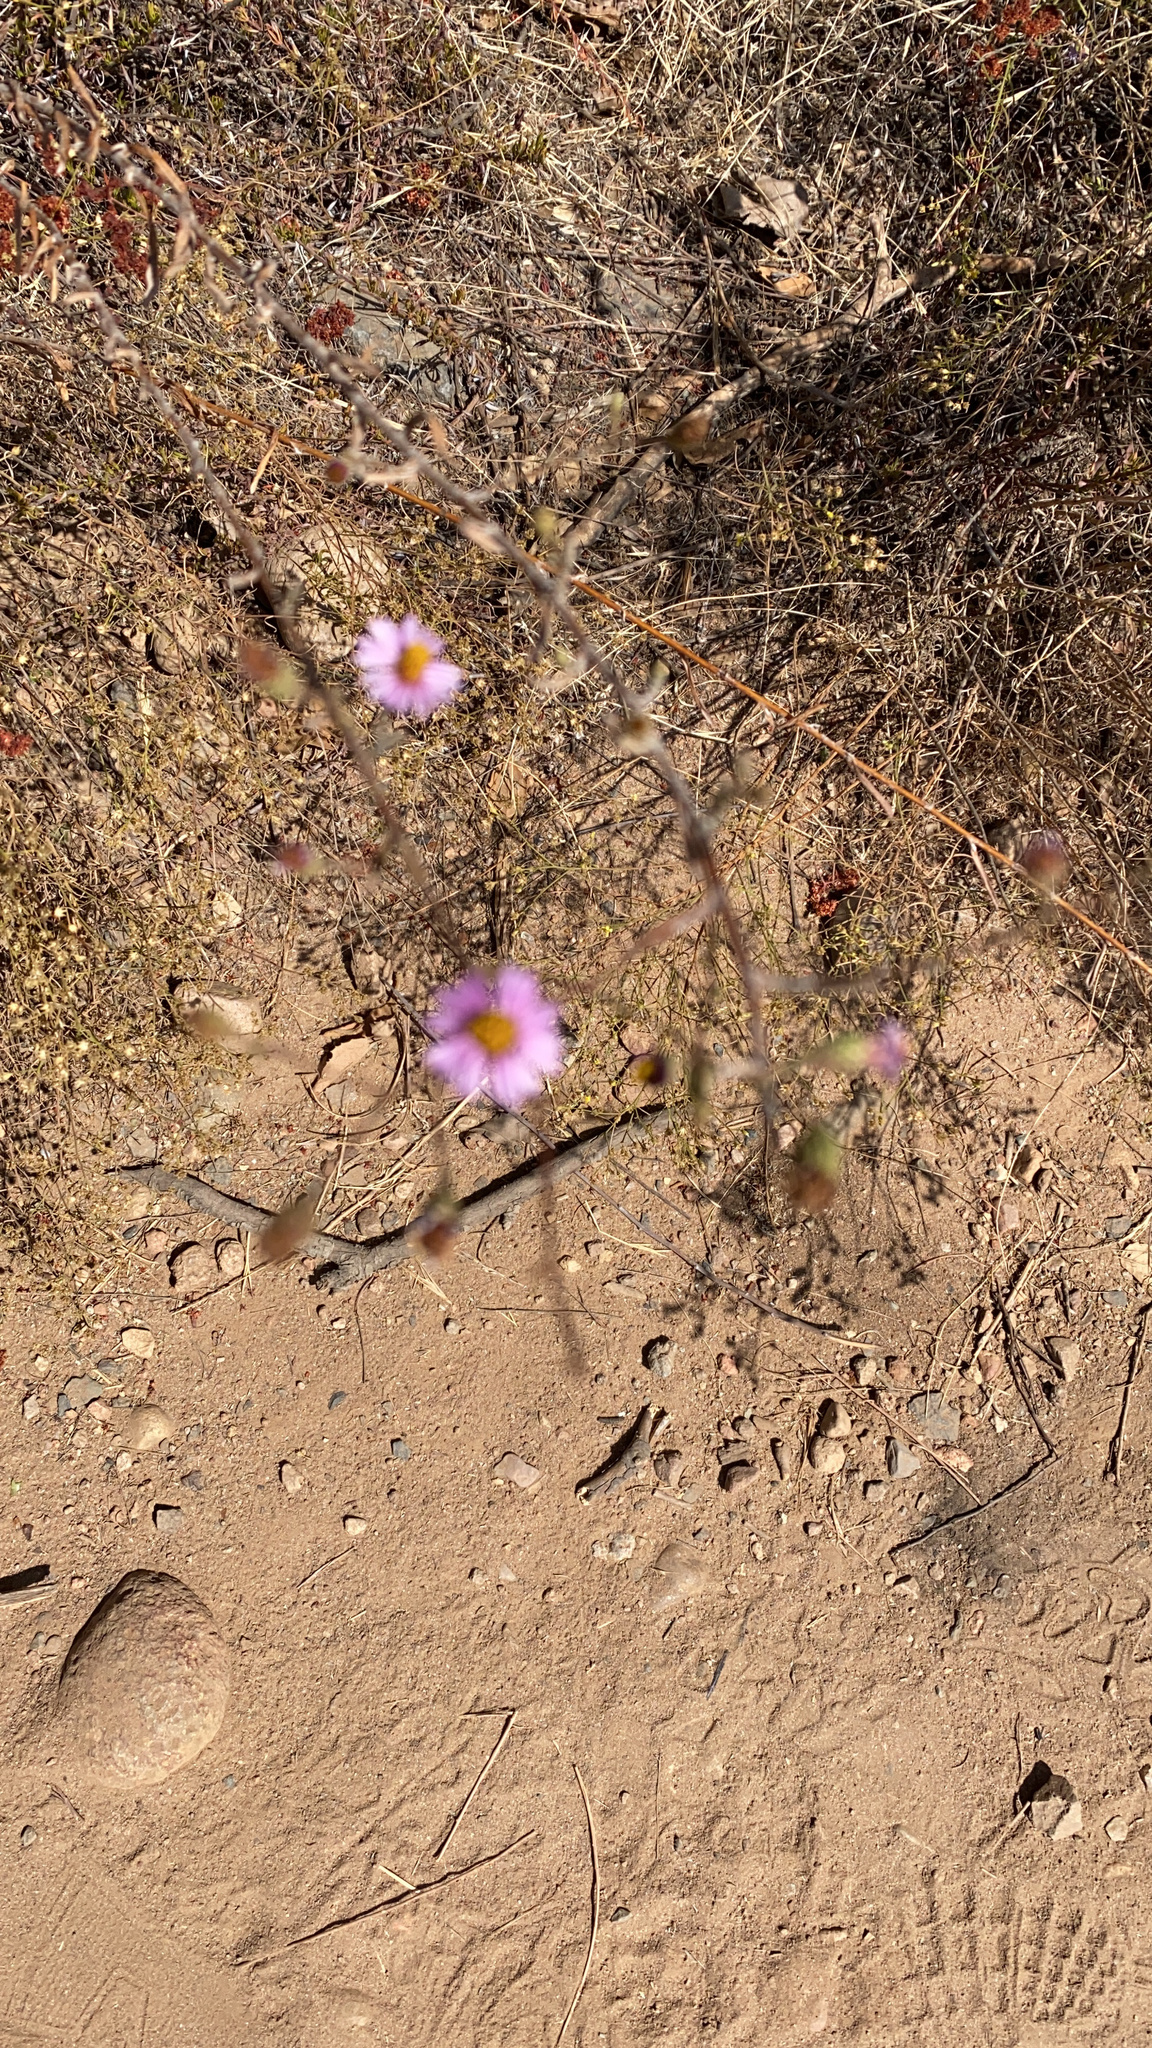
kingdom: Plantae
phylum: Tracheophyta
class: Magnoliopsida
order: Asterales
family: Asteraceae
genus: Corethrogyne
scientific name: Corethrogyne filaginifolia
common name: Sand-aster
